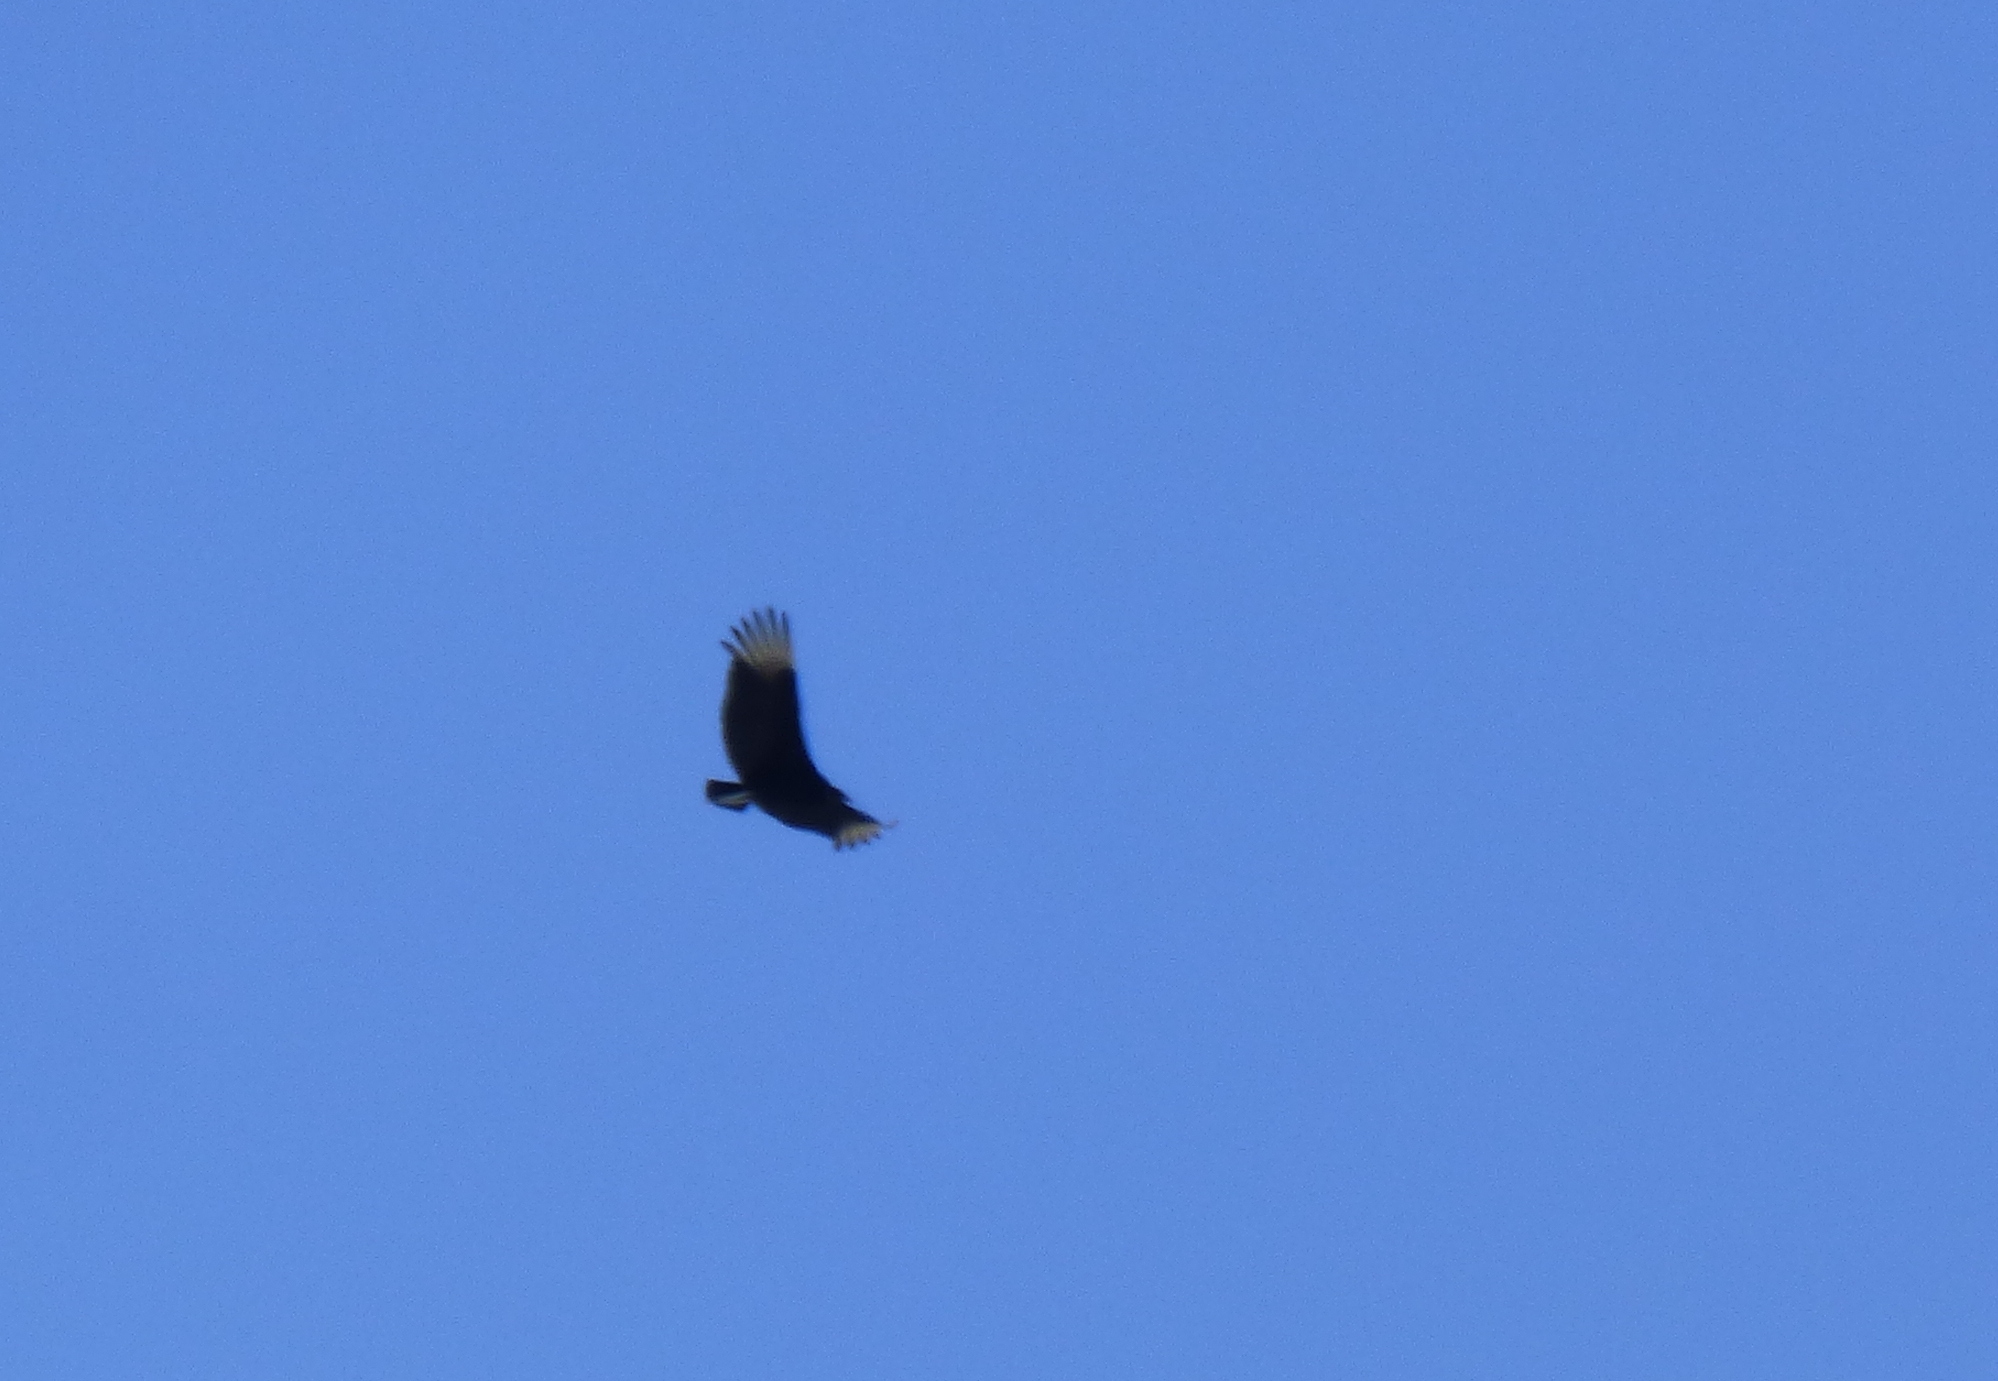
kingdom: Animalia
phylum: Chordata
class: Aves
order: Accipitriformes
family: Cathartidae
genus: Coragyps
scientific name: Coragyps atratus
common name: Black vulture
